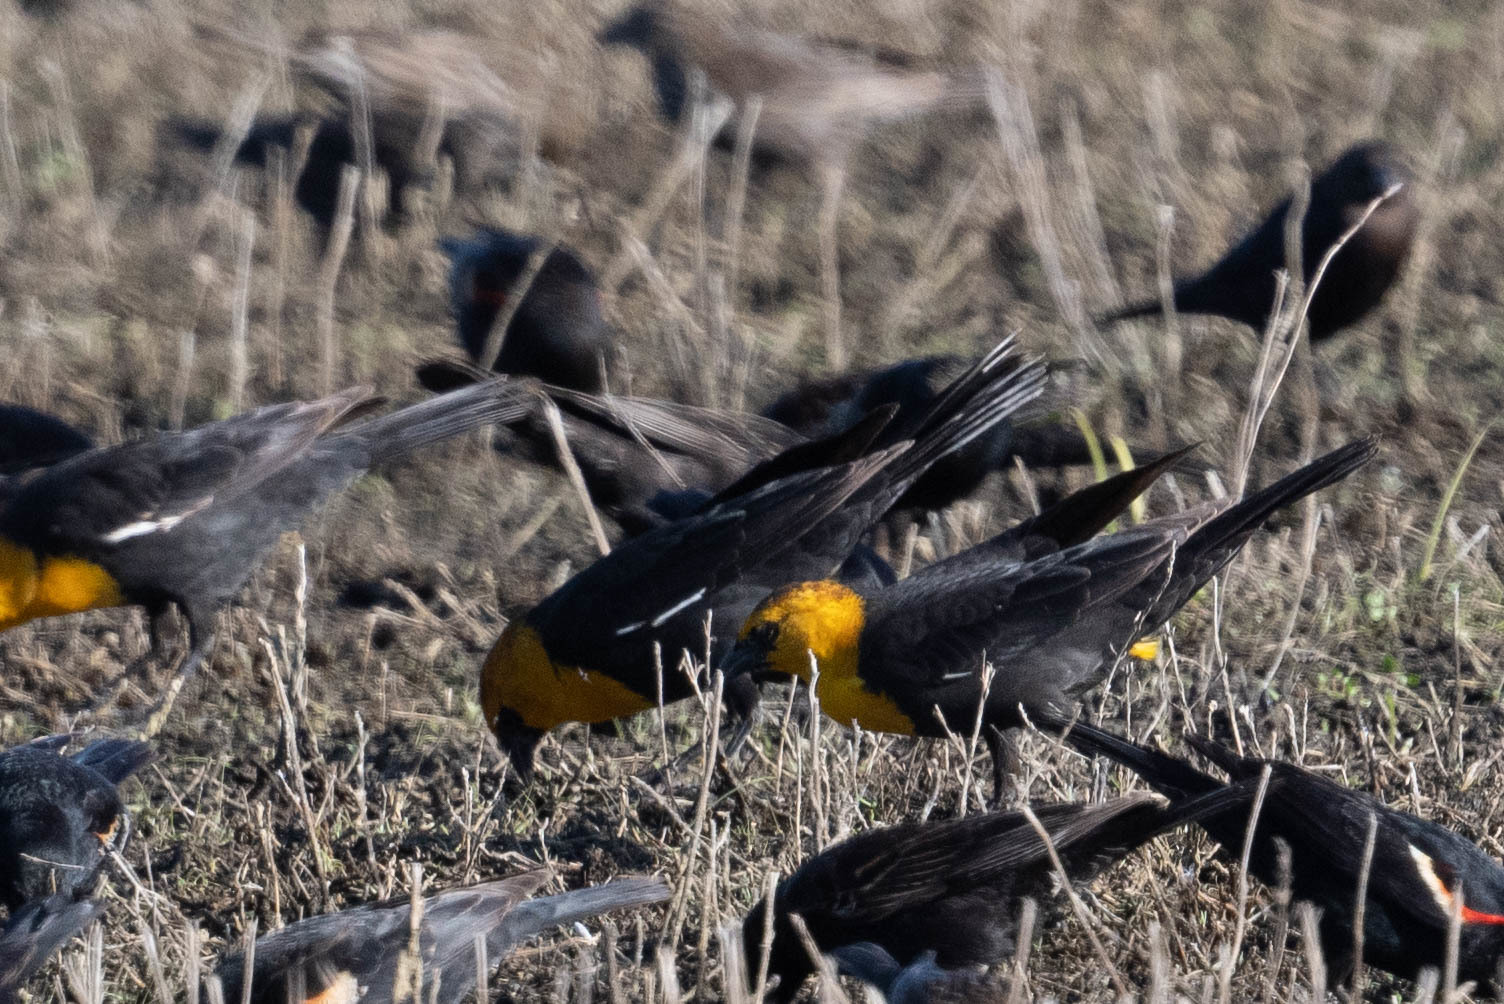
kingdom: Animalia
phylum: Chordata
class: Aves
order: Passeriformes
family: Icteridae
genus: Xanthocephalus
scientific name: Xanthocephalus xanthocephalus
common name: Yellow-headed blackbird
